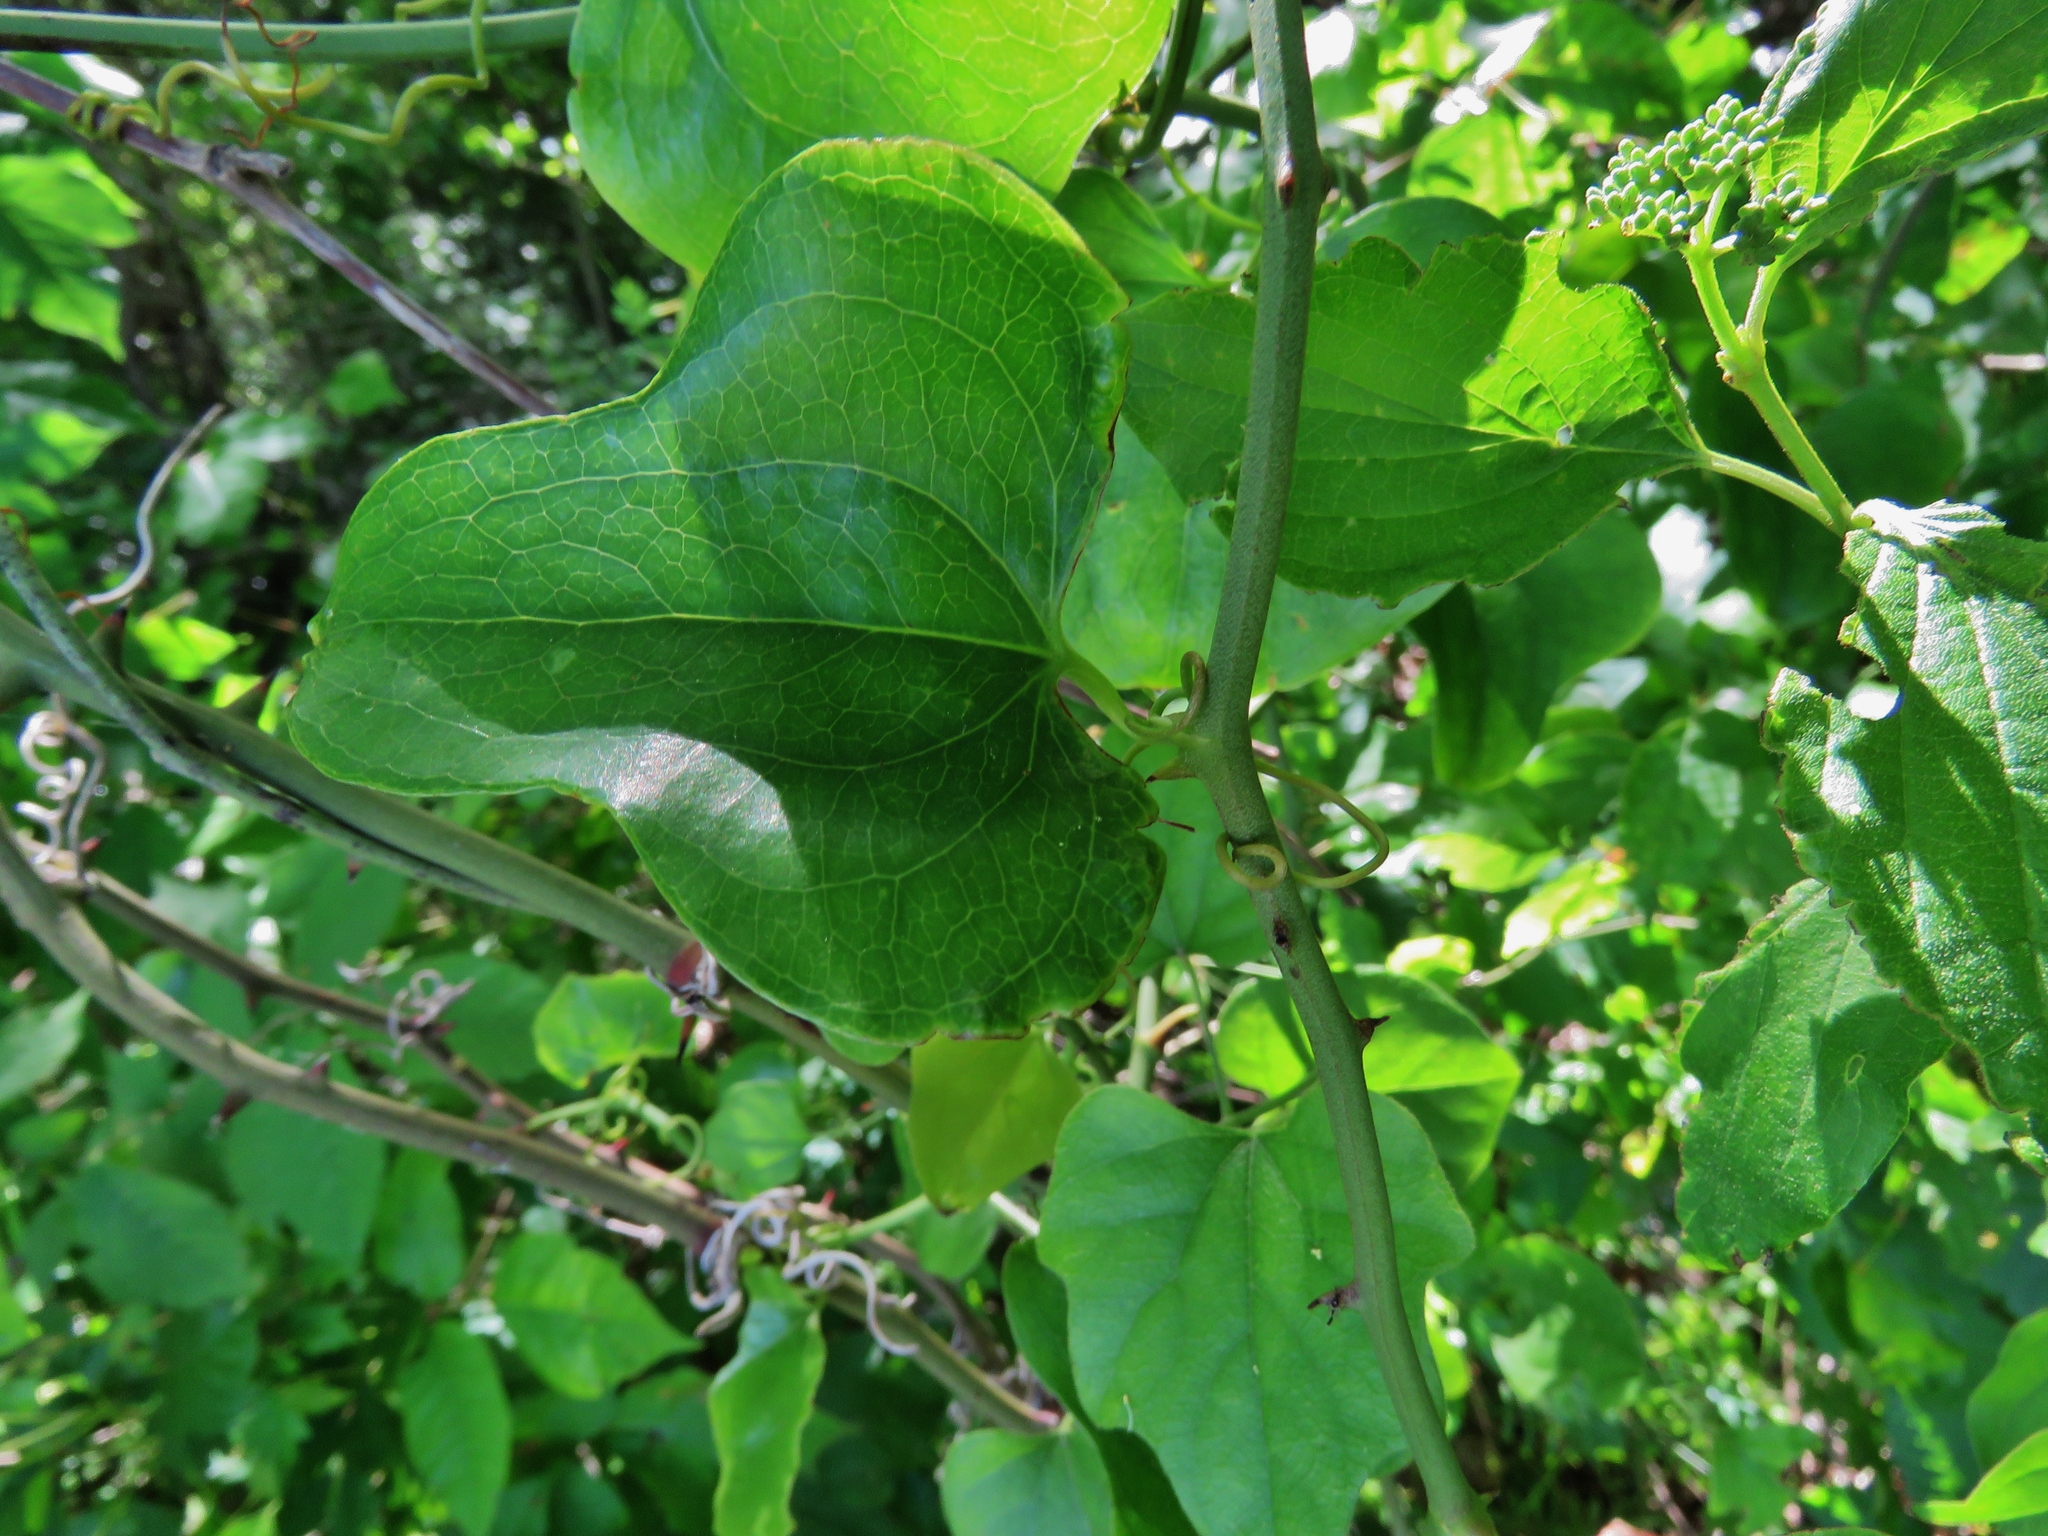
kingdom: Plantae
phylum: Tracheophyta
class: Liliopsida
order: Liliales
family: Smilacaceae
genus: Smilax
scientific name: Smilax bona-nox
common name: Catbrier
